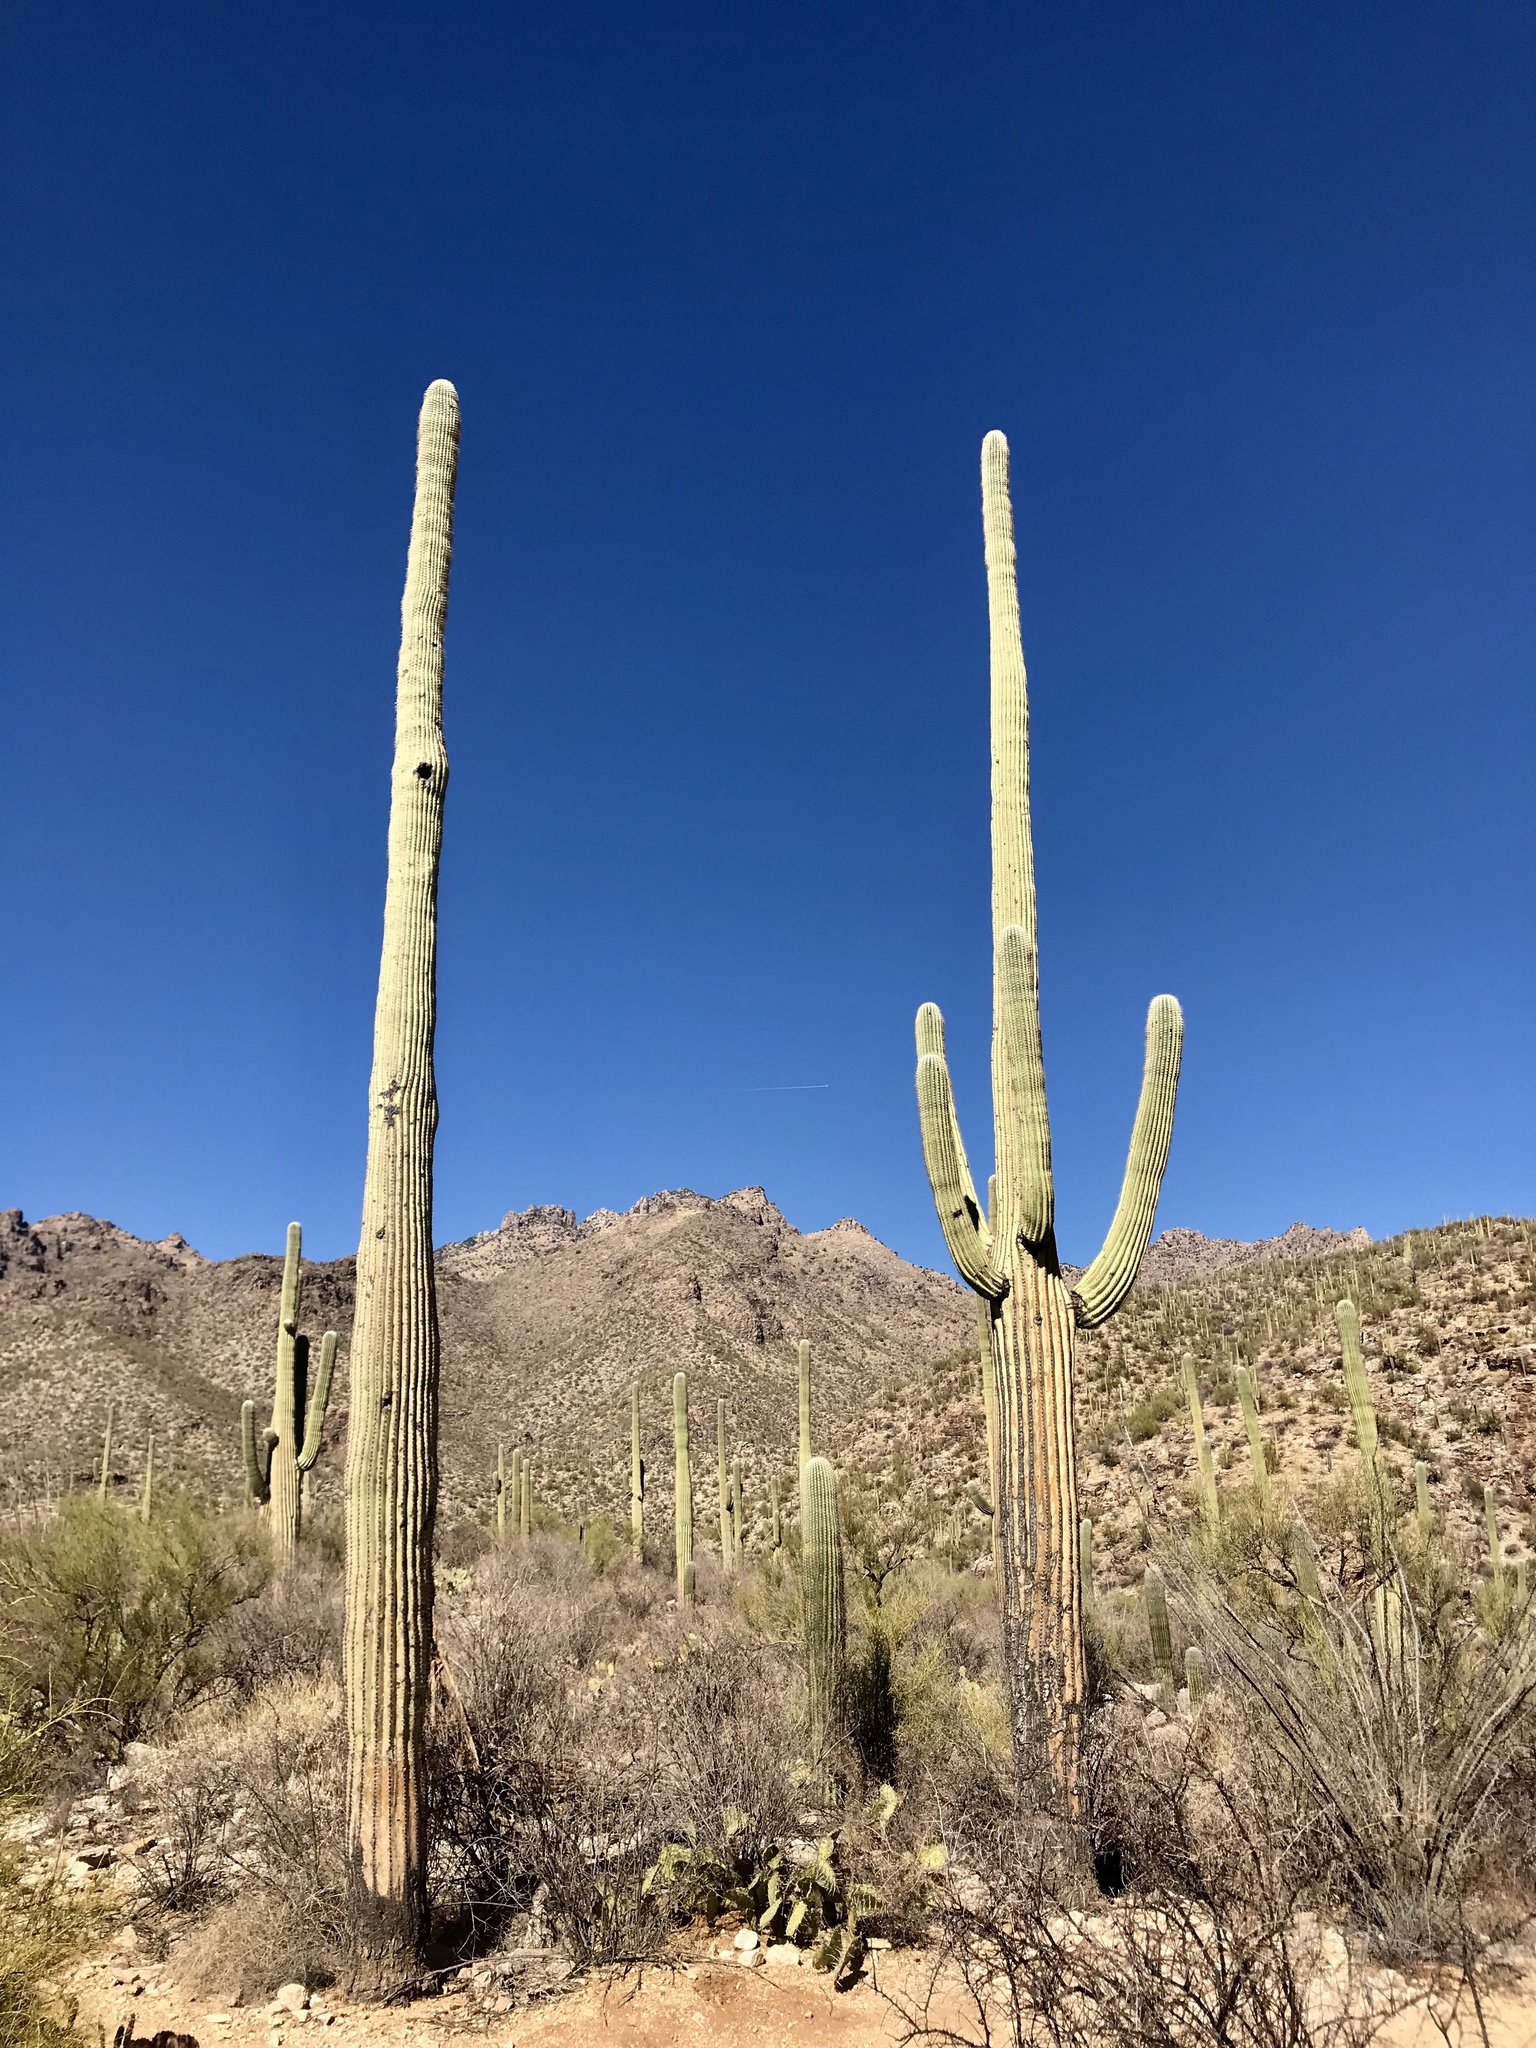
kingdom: Plantae
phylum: Tracheophyta
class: Magnoliopsida
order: Caryophyllales
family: Cactaceae
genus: Carnegiea
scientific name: Carnegiea gigantea
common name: Saguaro
